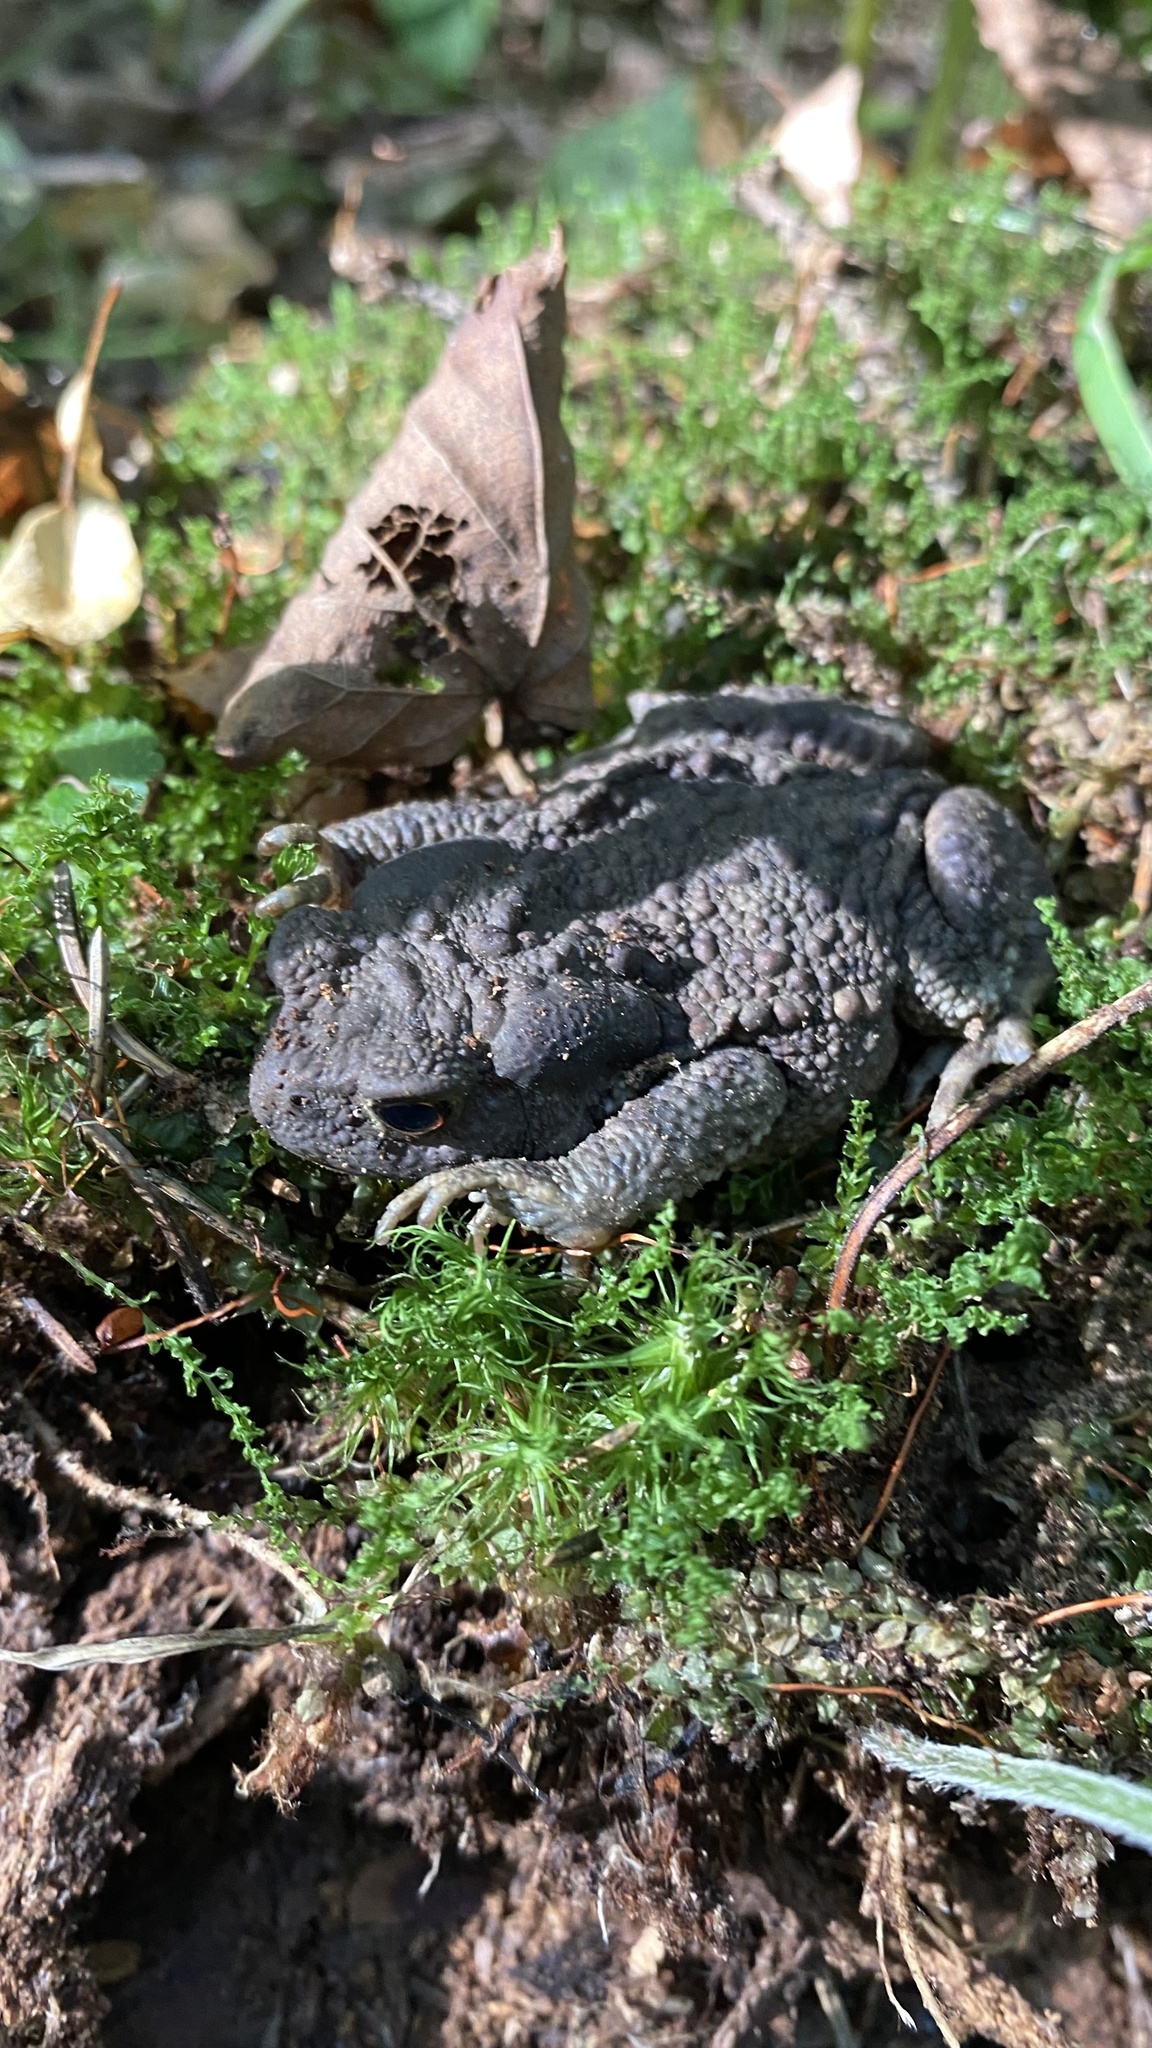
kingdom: Animalia
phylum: Chordata
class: Amphibia
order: Anura
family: Bufonidae
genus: Bufo
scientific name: Bufo bufo
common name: Common toad
